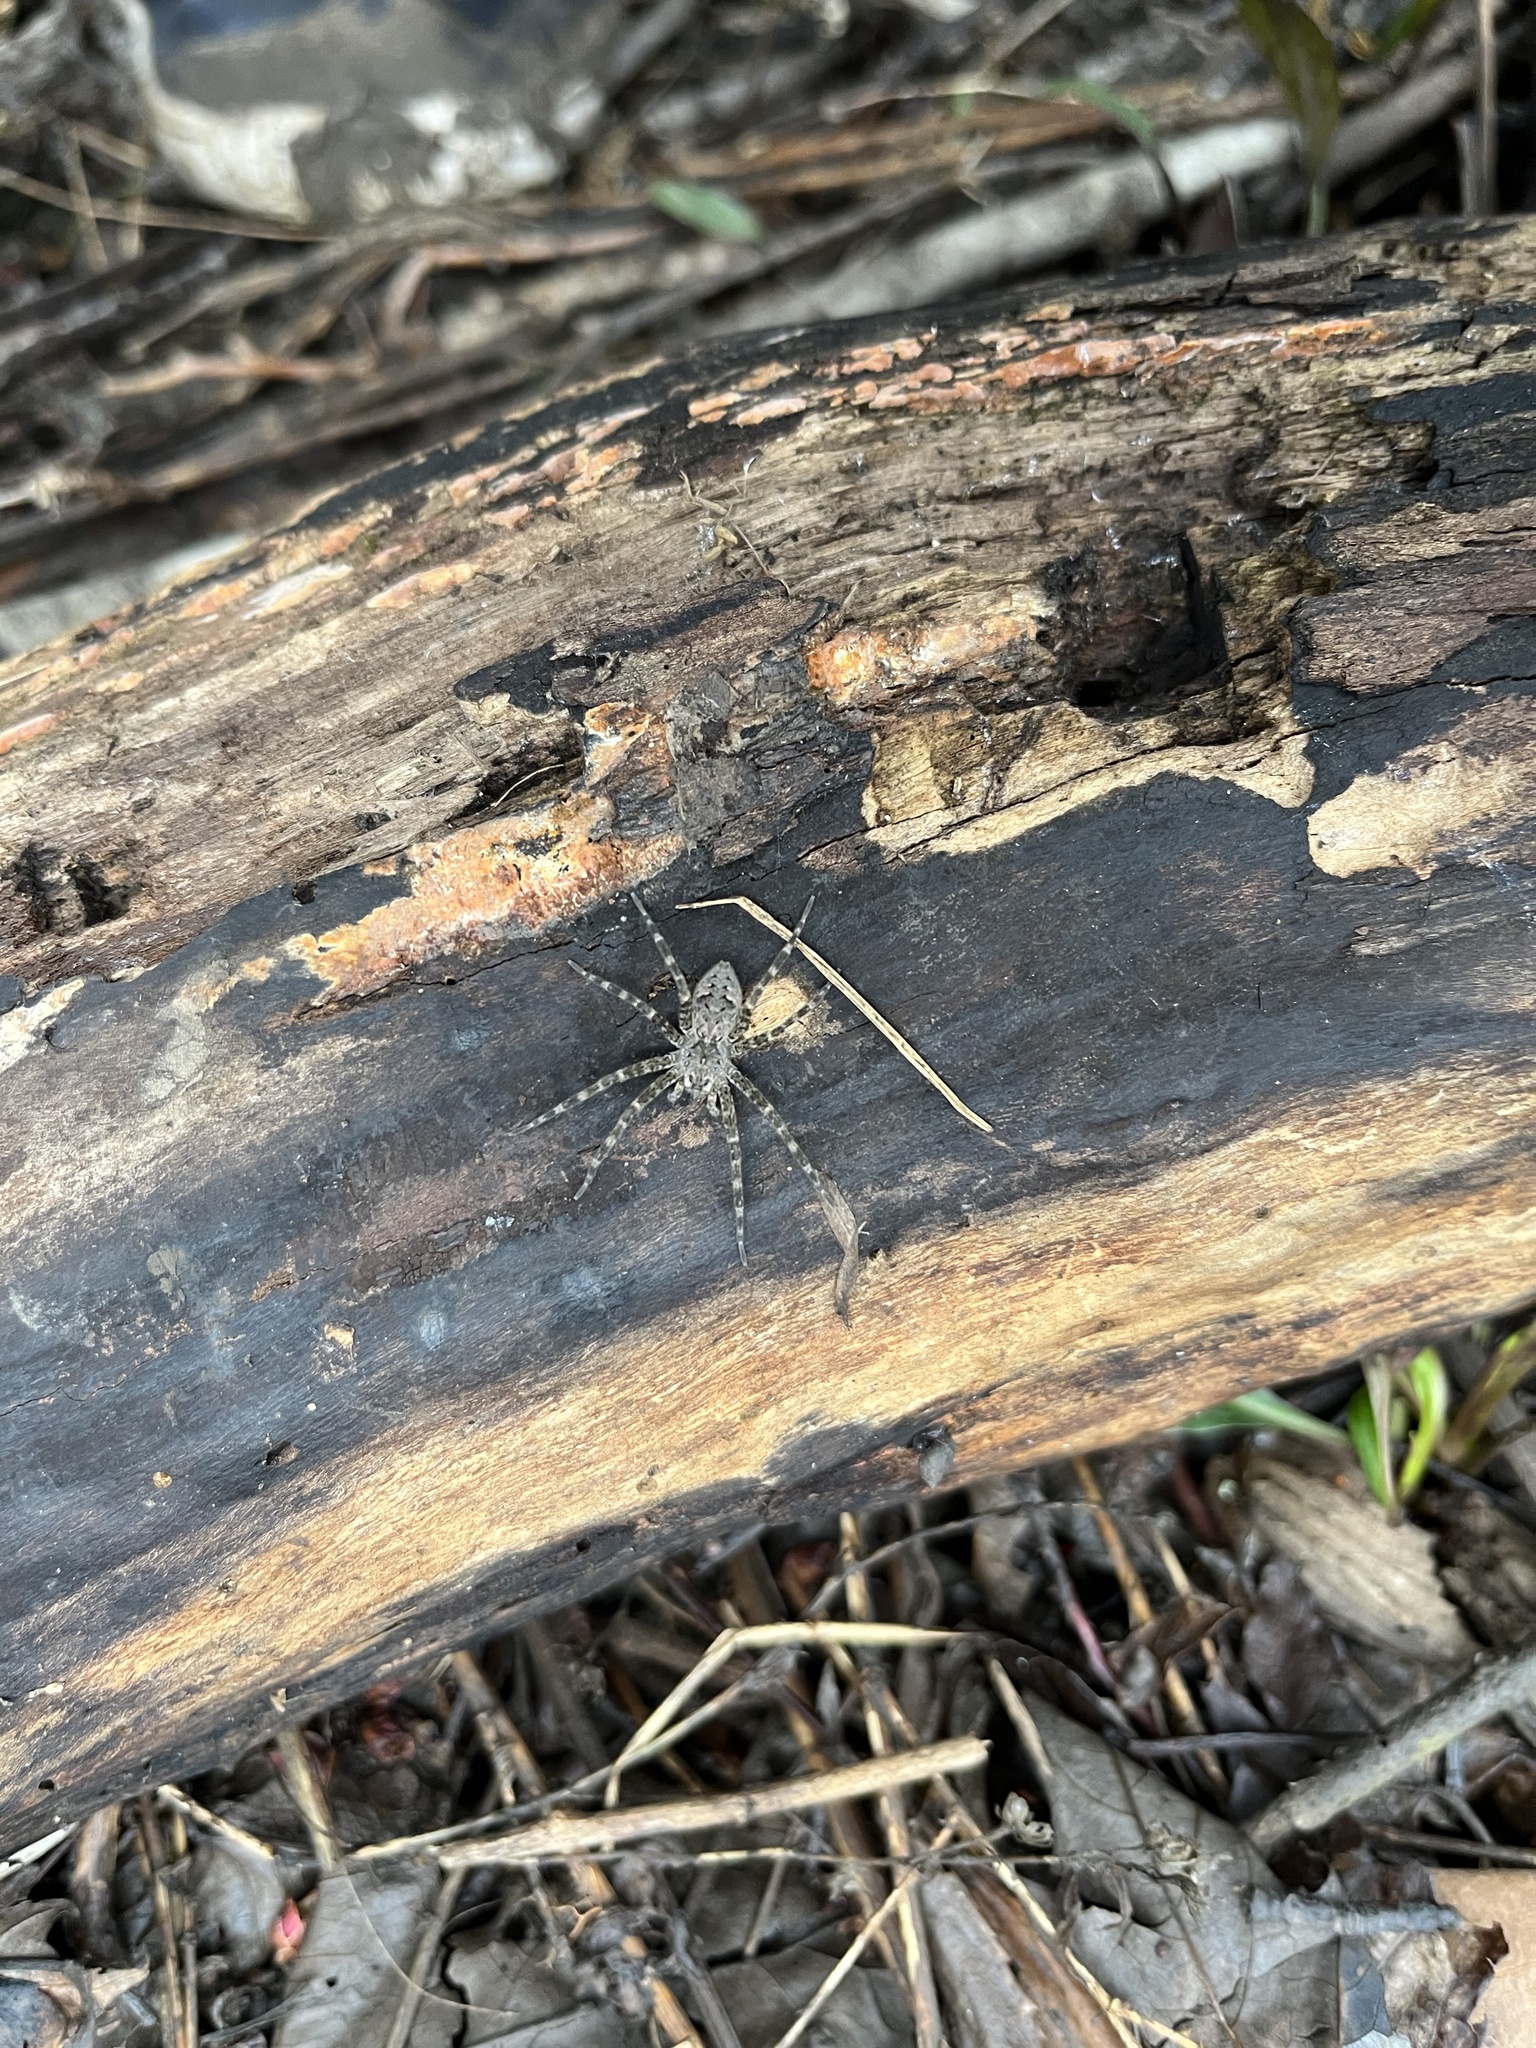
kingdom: Animalia
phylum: Arthropoda
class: Arachnida
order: Araneae
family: Pisauridae
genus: Dolomedes
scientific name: Dolomedes tenebrosus
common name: Dark fishing spider
